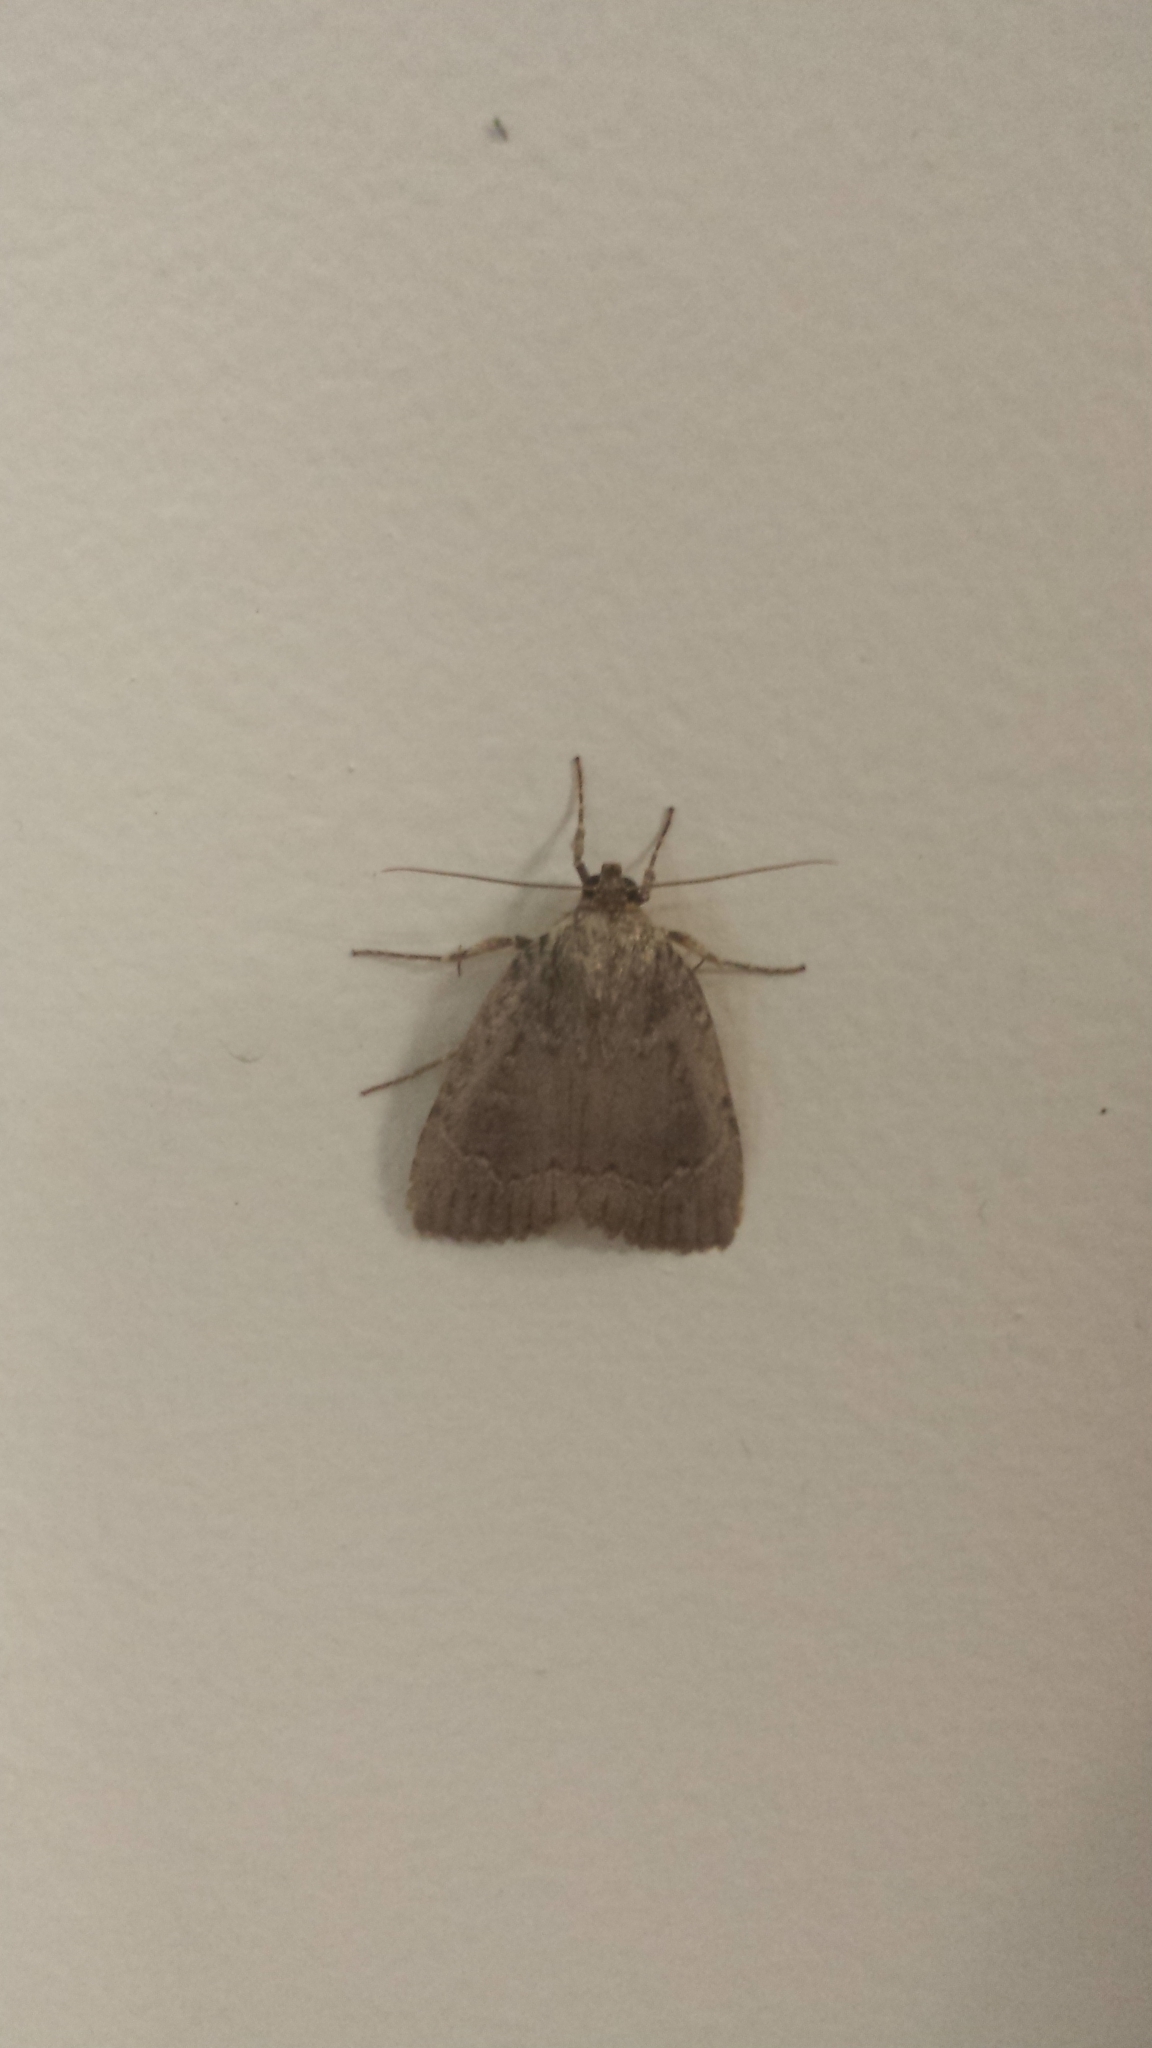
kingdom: Animalia
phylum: Arthropoda
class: Insecta
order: Lepidoptera
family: Noctuidae
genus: Amphipyra
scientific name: Amphipyra pyramidoides
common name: American copper underwing
